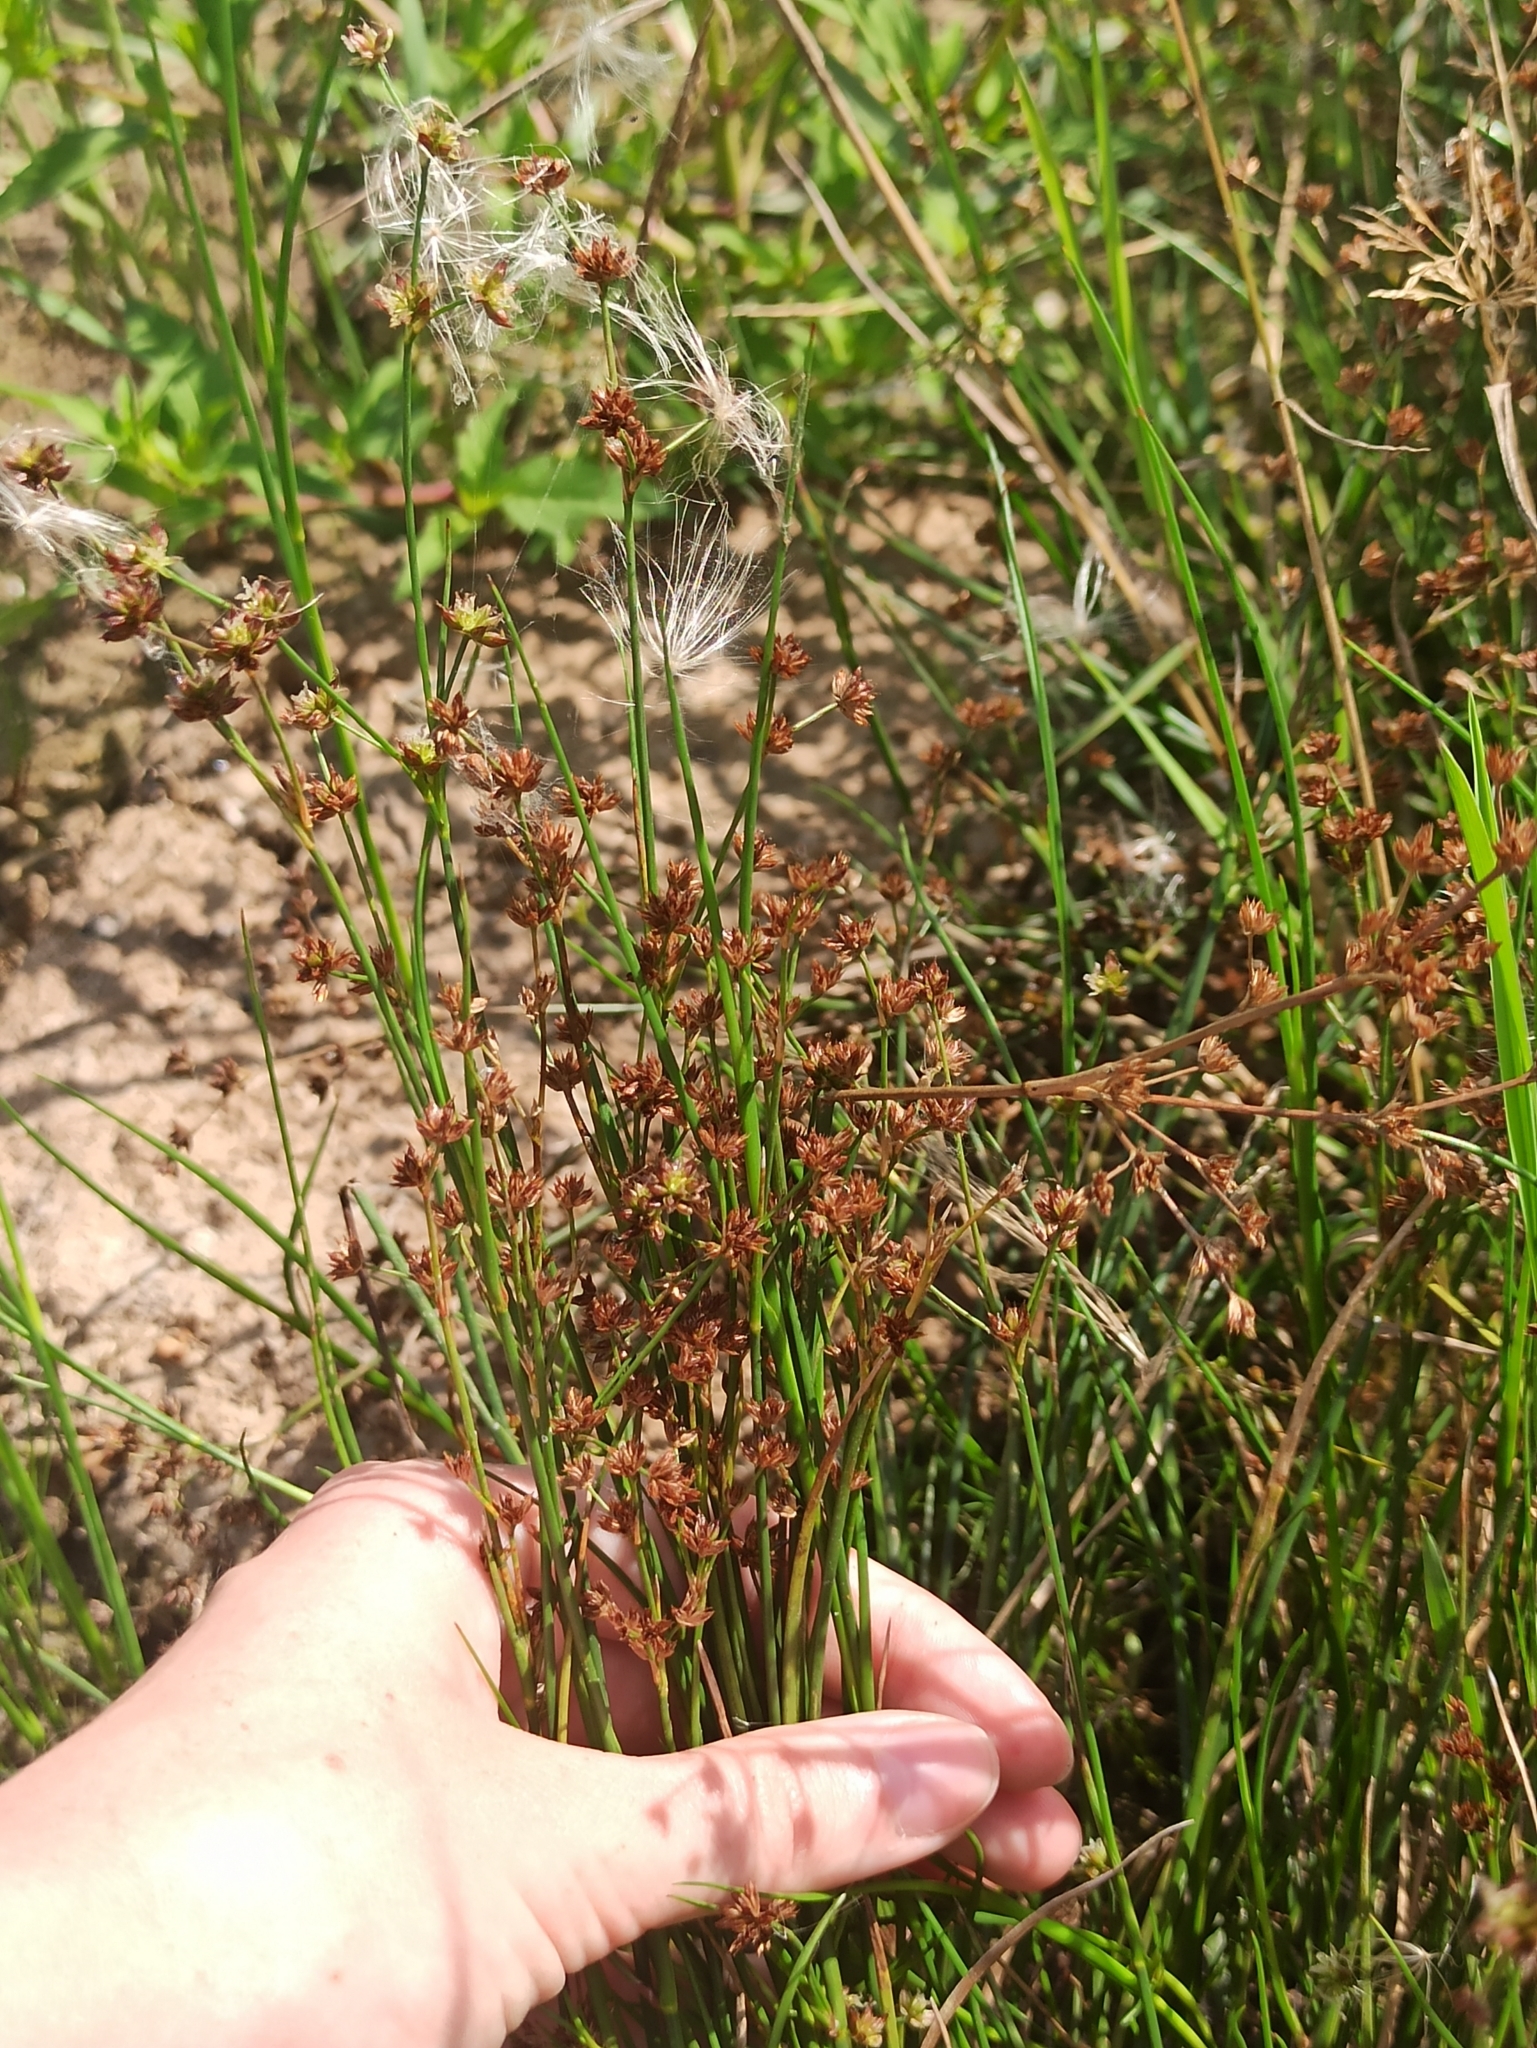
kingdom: Plantae
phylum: Tracheophyta
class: Liliopsida
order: Poales
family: Juncaceae
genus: Juncus
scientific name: Juncus articulatus
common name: Jointed rush
